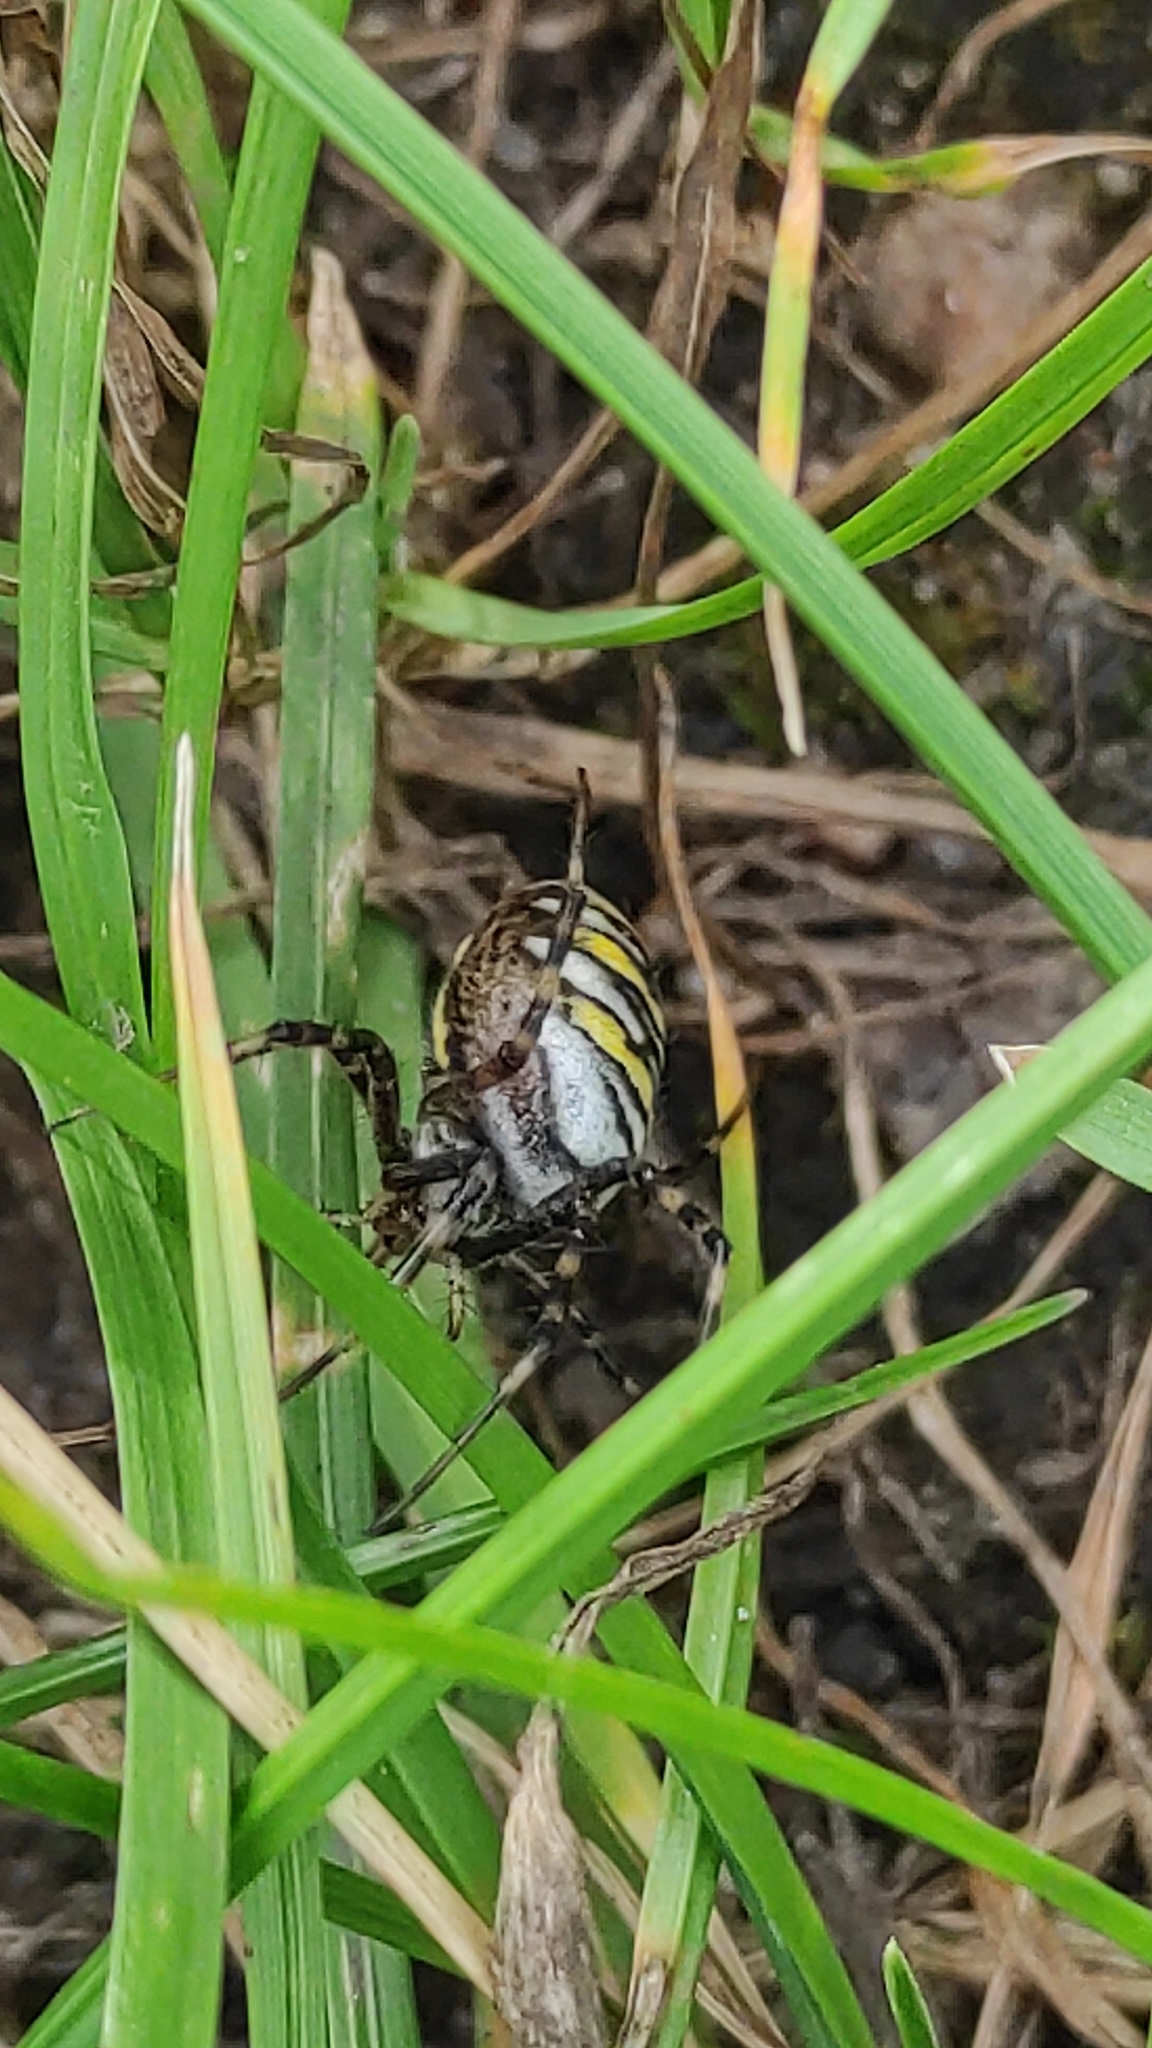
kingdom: Animalia
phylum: Arthropoda
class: Arachnida
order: Araneae
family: Araneidae
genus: Argiope
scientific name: Argiope bruennichi
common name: Wasp spider
